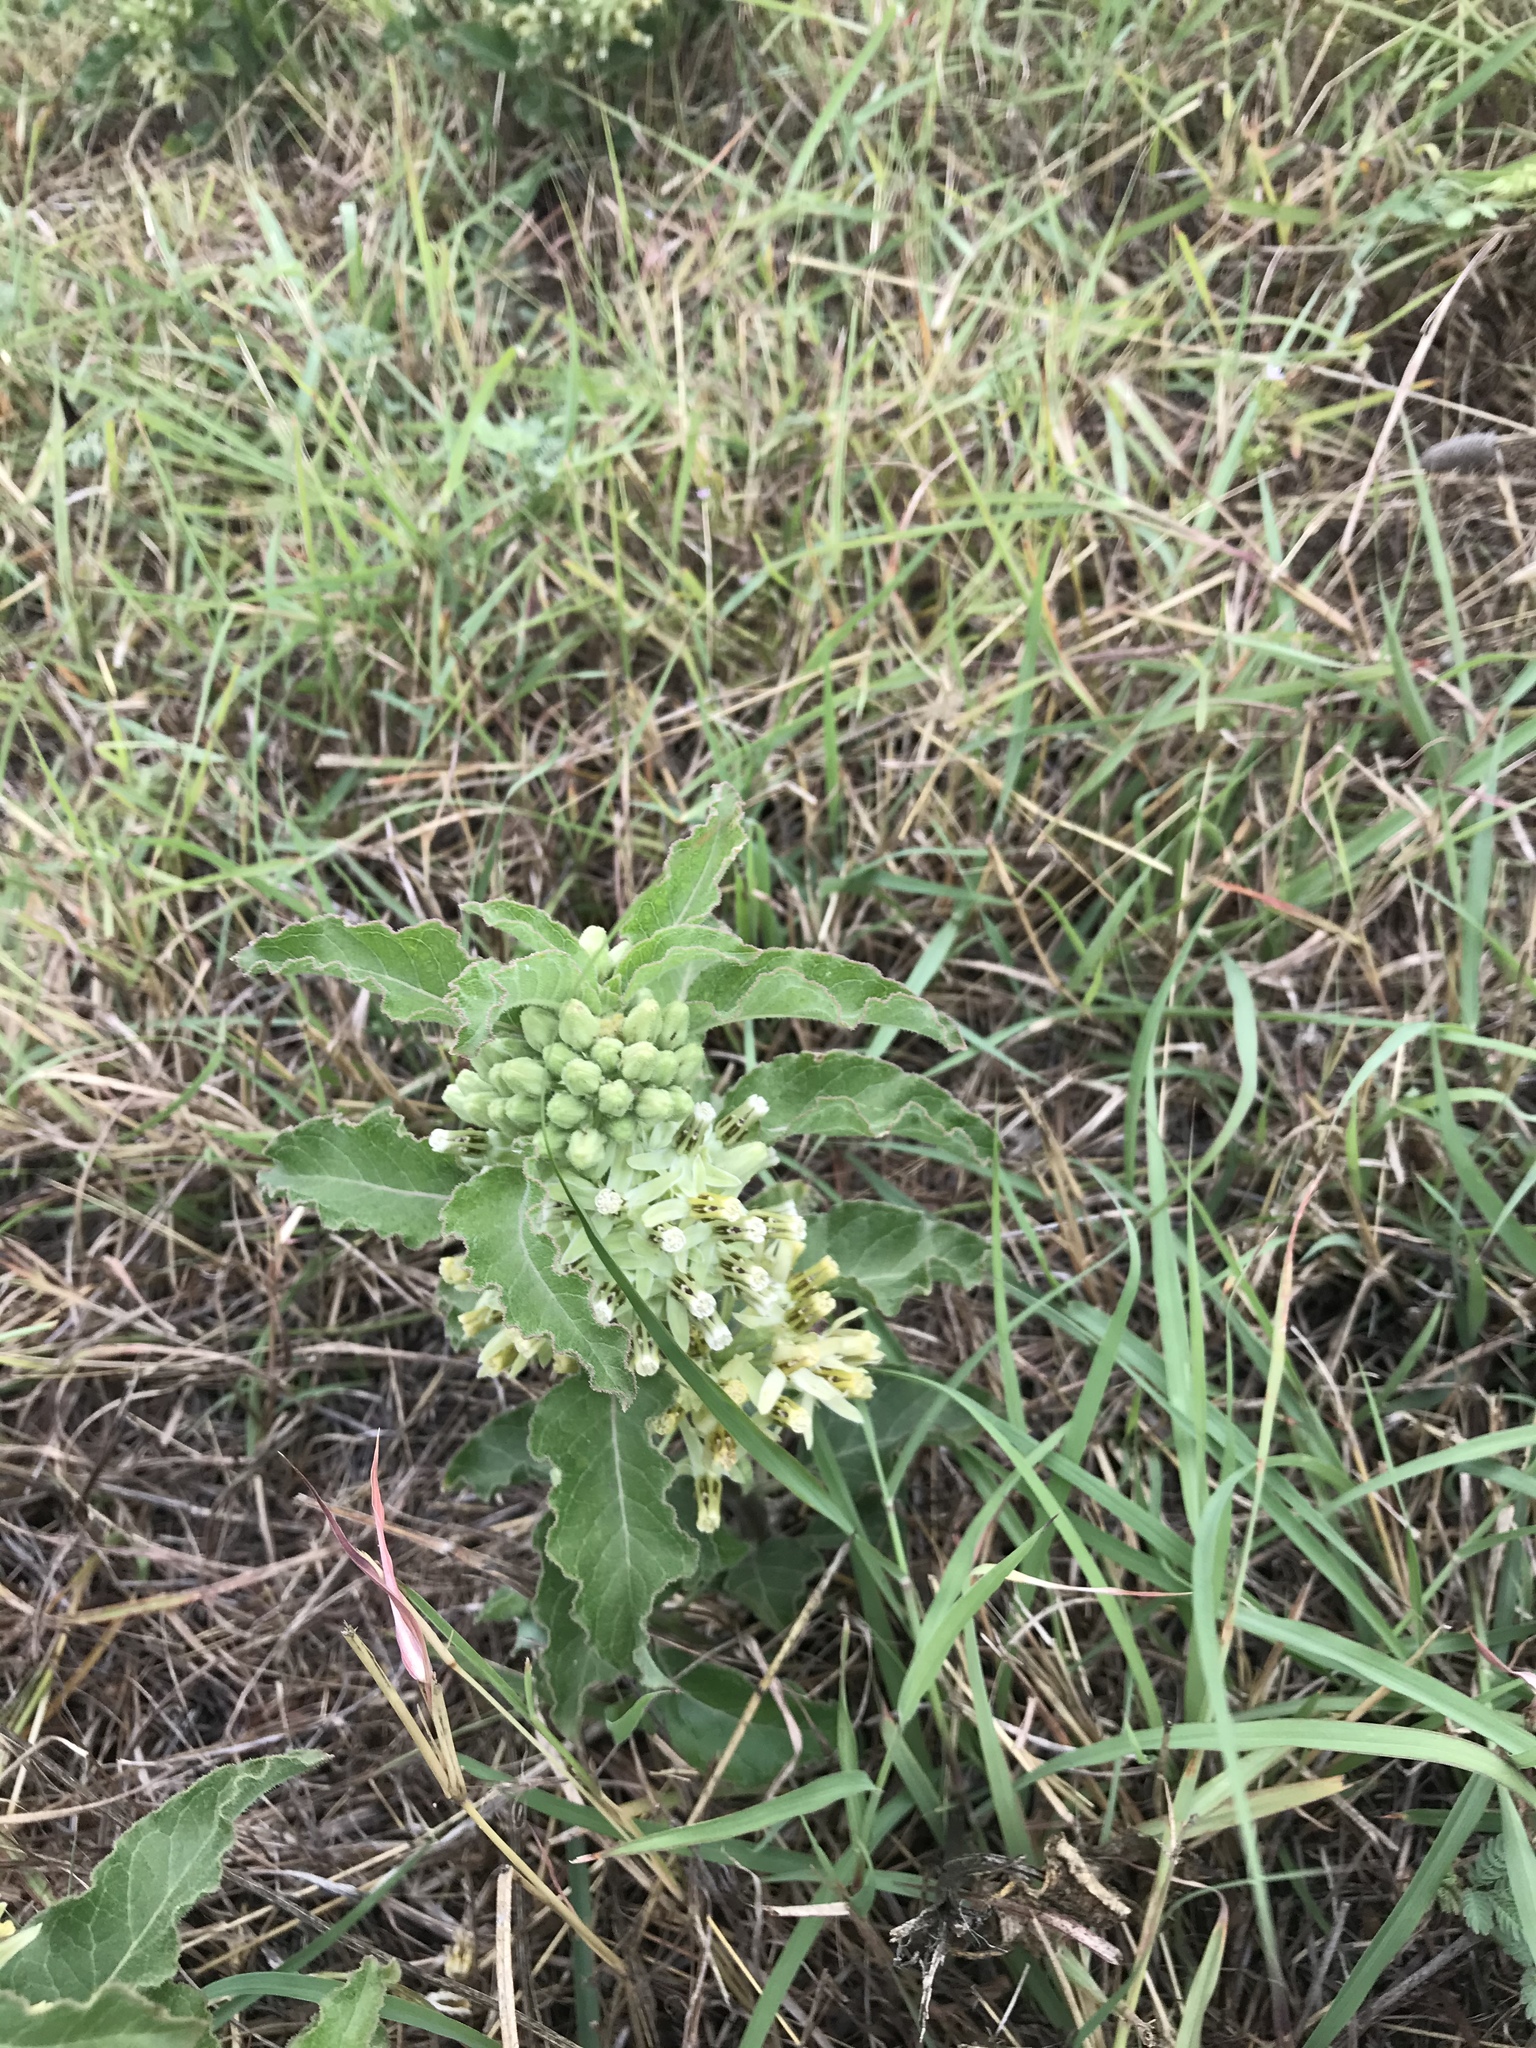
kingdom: Plantae
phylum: Tracheophyta
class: Magnoliopsida
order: Gentianales
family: Apocynaceae
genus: Asclepias
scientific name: Asclepias oenotheroides
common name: Zizotes milkweed
